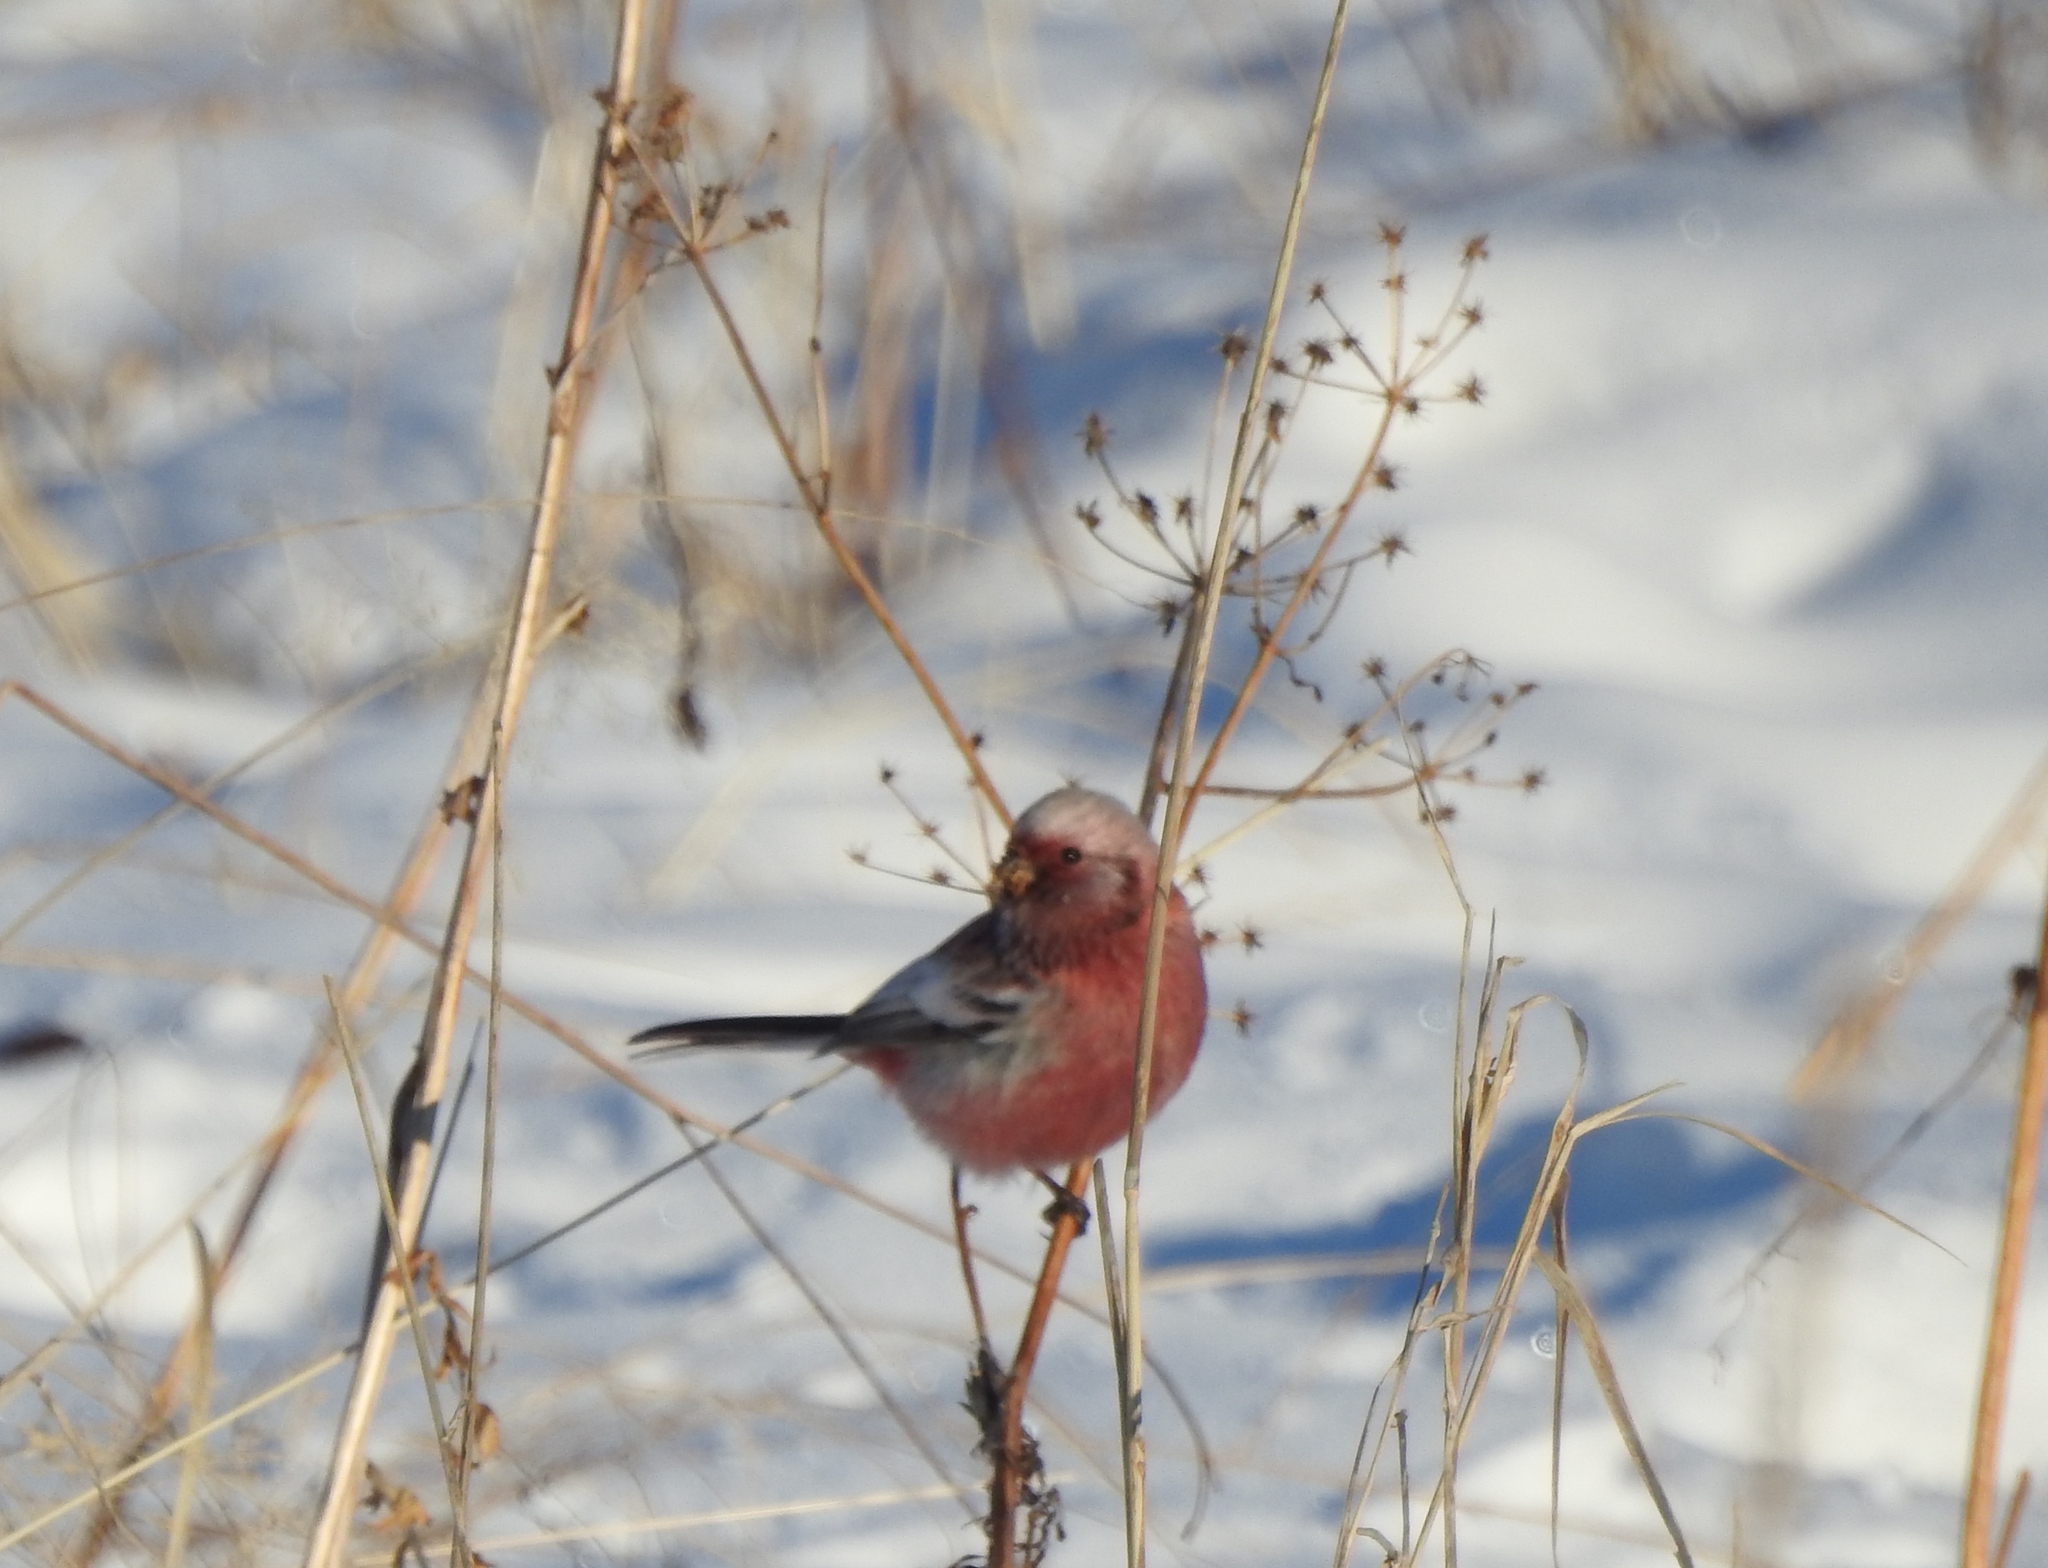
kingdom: Animalia
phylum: Chordata
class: Aves
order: Passeriformes
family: Fringillidae
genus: Carpodacus
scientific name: Carpodacus sibiricus
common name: Long-tailed rosefinch
